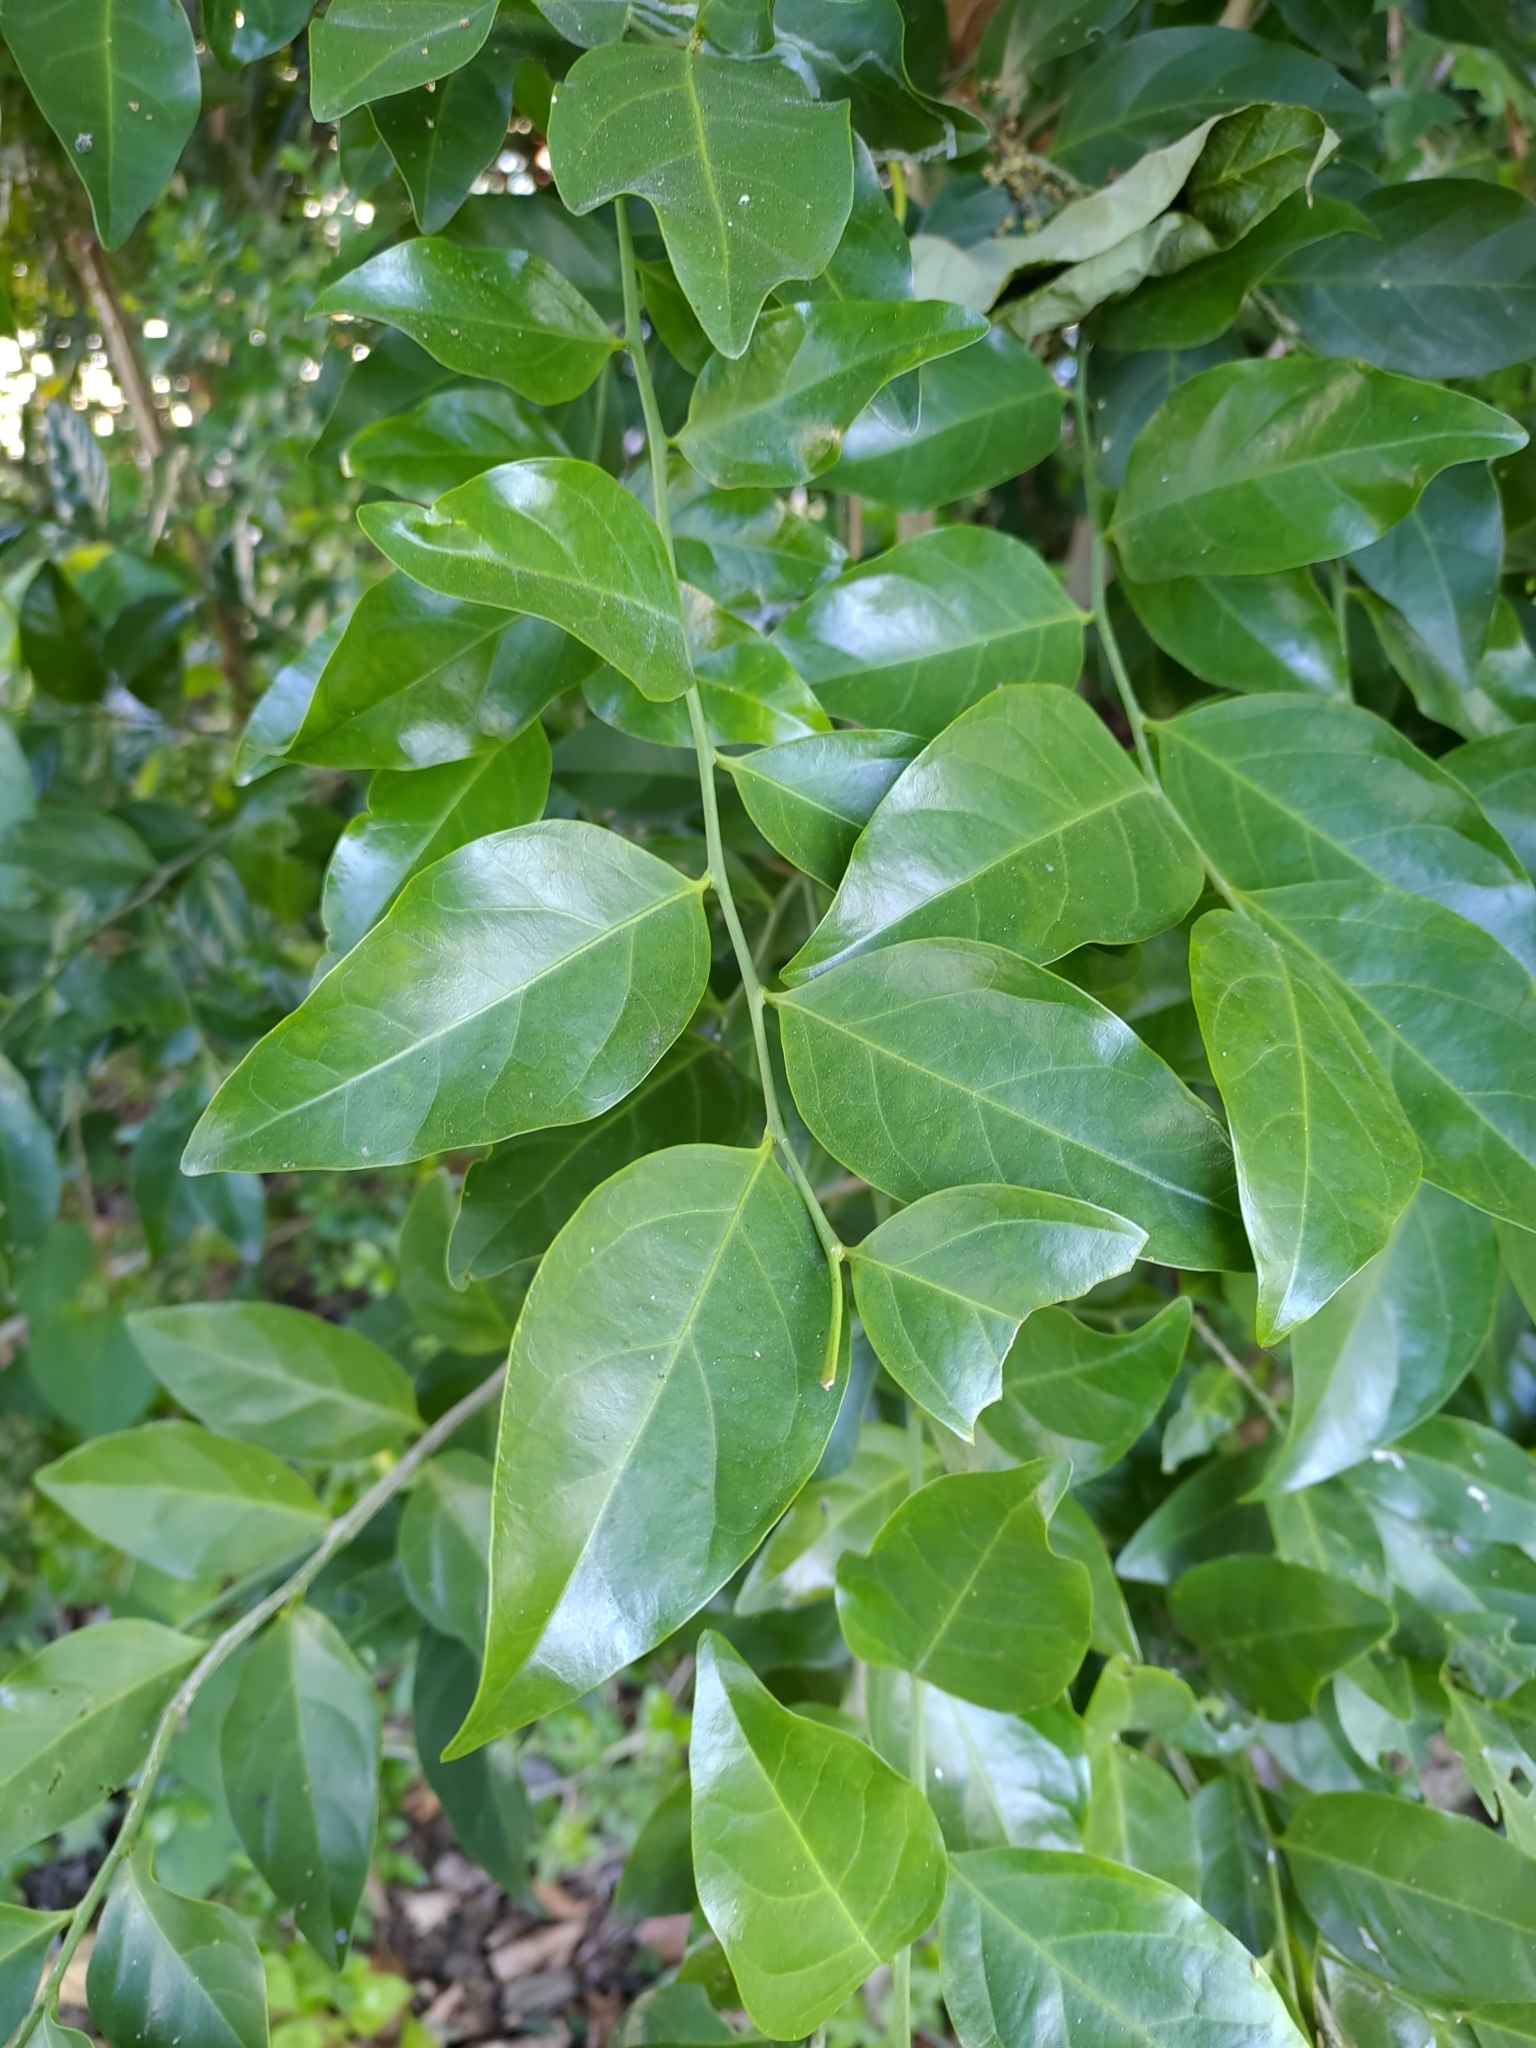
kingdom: Plantae
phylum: Tracheophyta
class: Magnoliopsida
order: Santalales
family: Opiliaceae
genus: Champereia
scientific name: Champereia manillana
